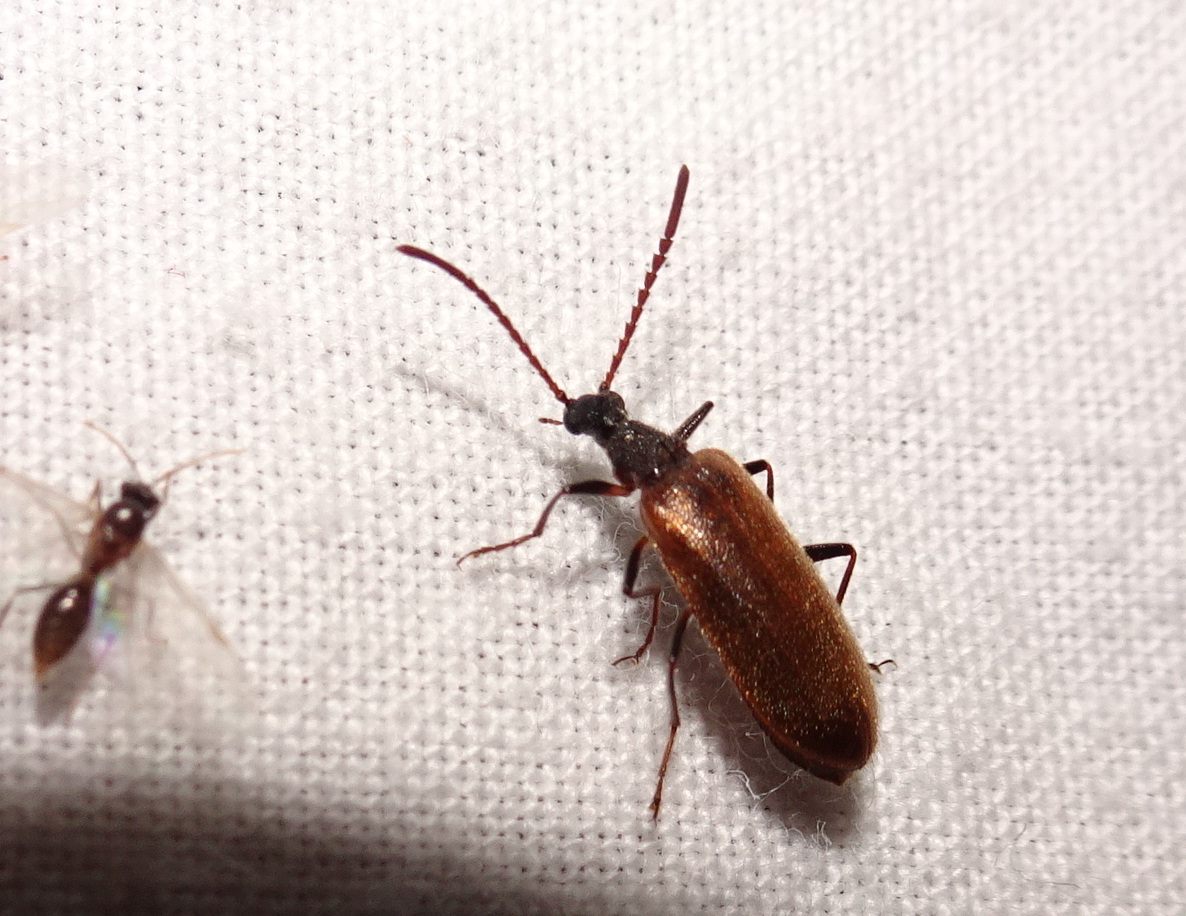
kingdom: Animalia
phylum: Arthropoda
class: Insecta
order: Coleoptera
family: Tenebrionidae
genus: Lagria
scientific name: Lagria hirta
